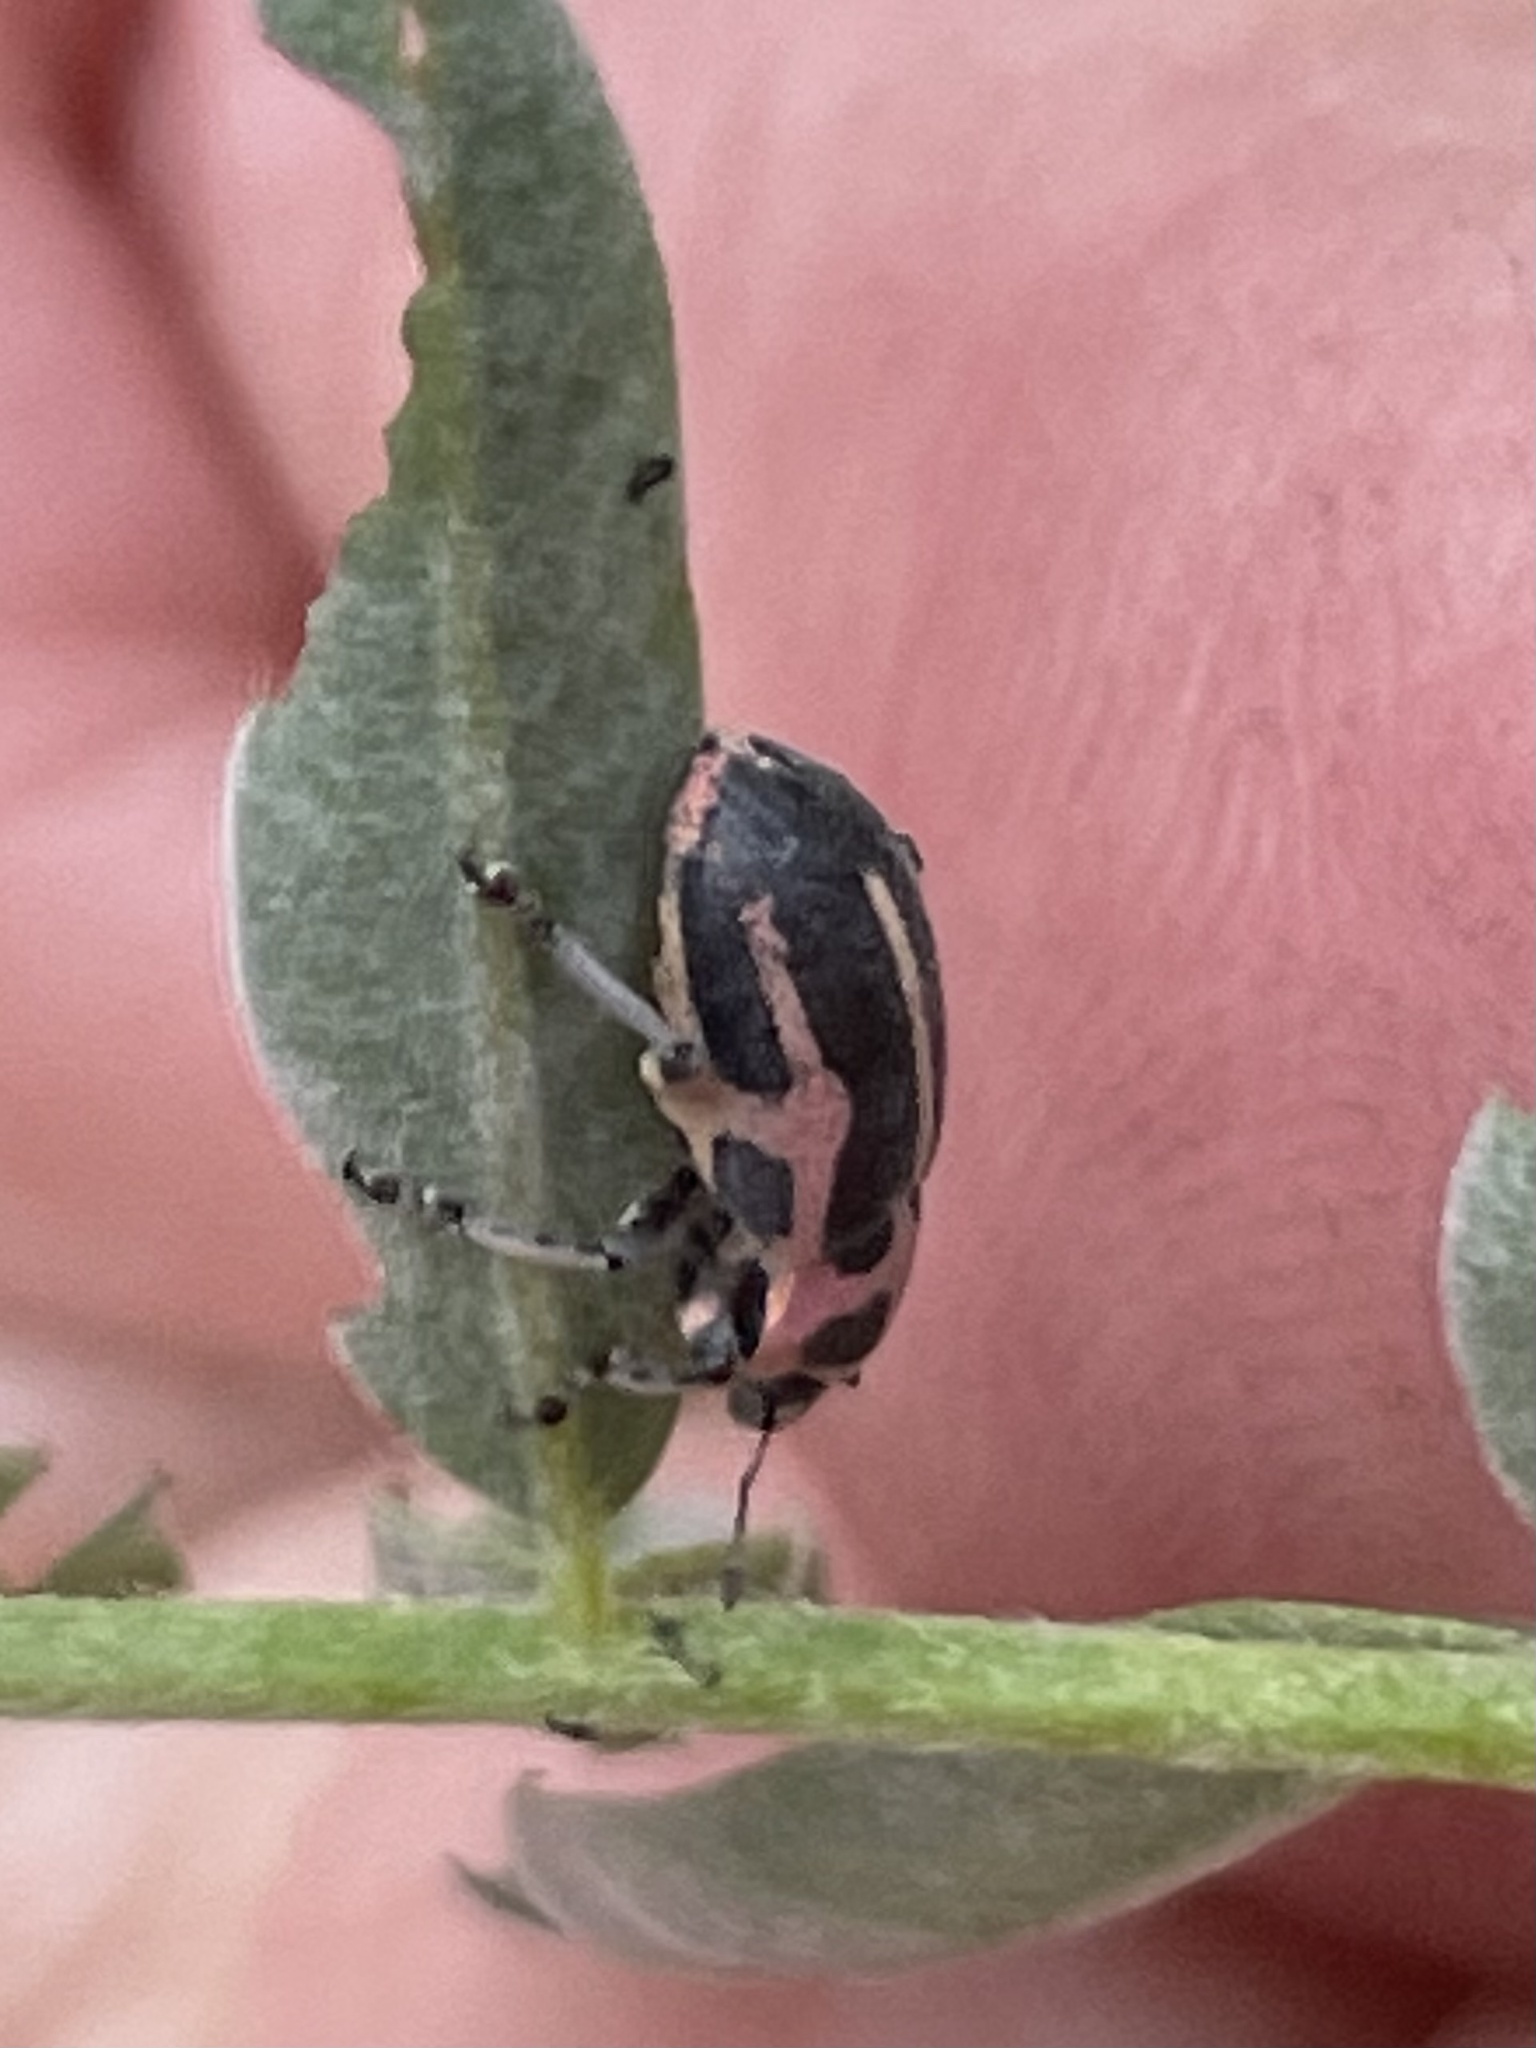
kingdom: Animalia
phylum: Arthropoda
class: Insecta
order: Coleoptera
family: Curculionidae
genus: Eudiagogus
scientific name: Eudiagogus pulcher
